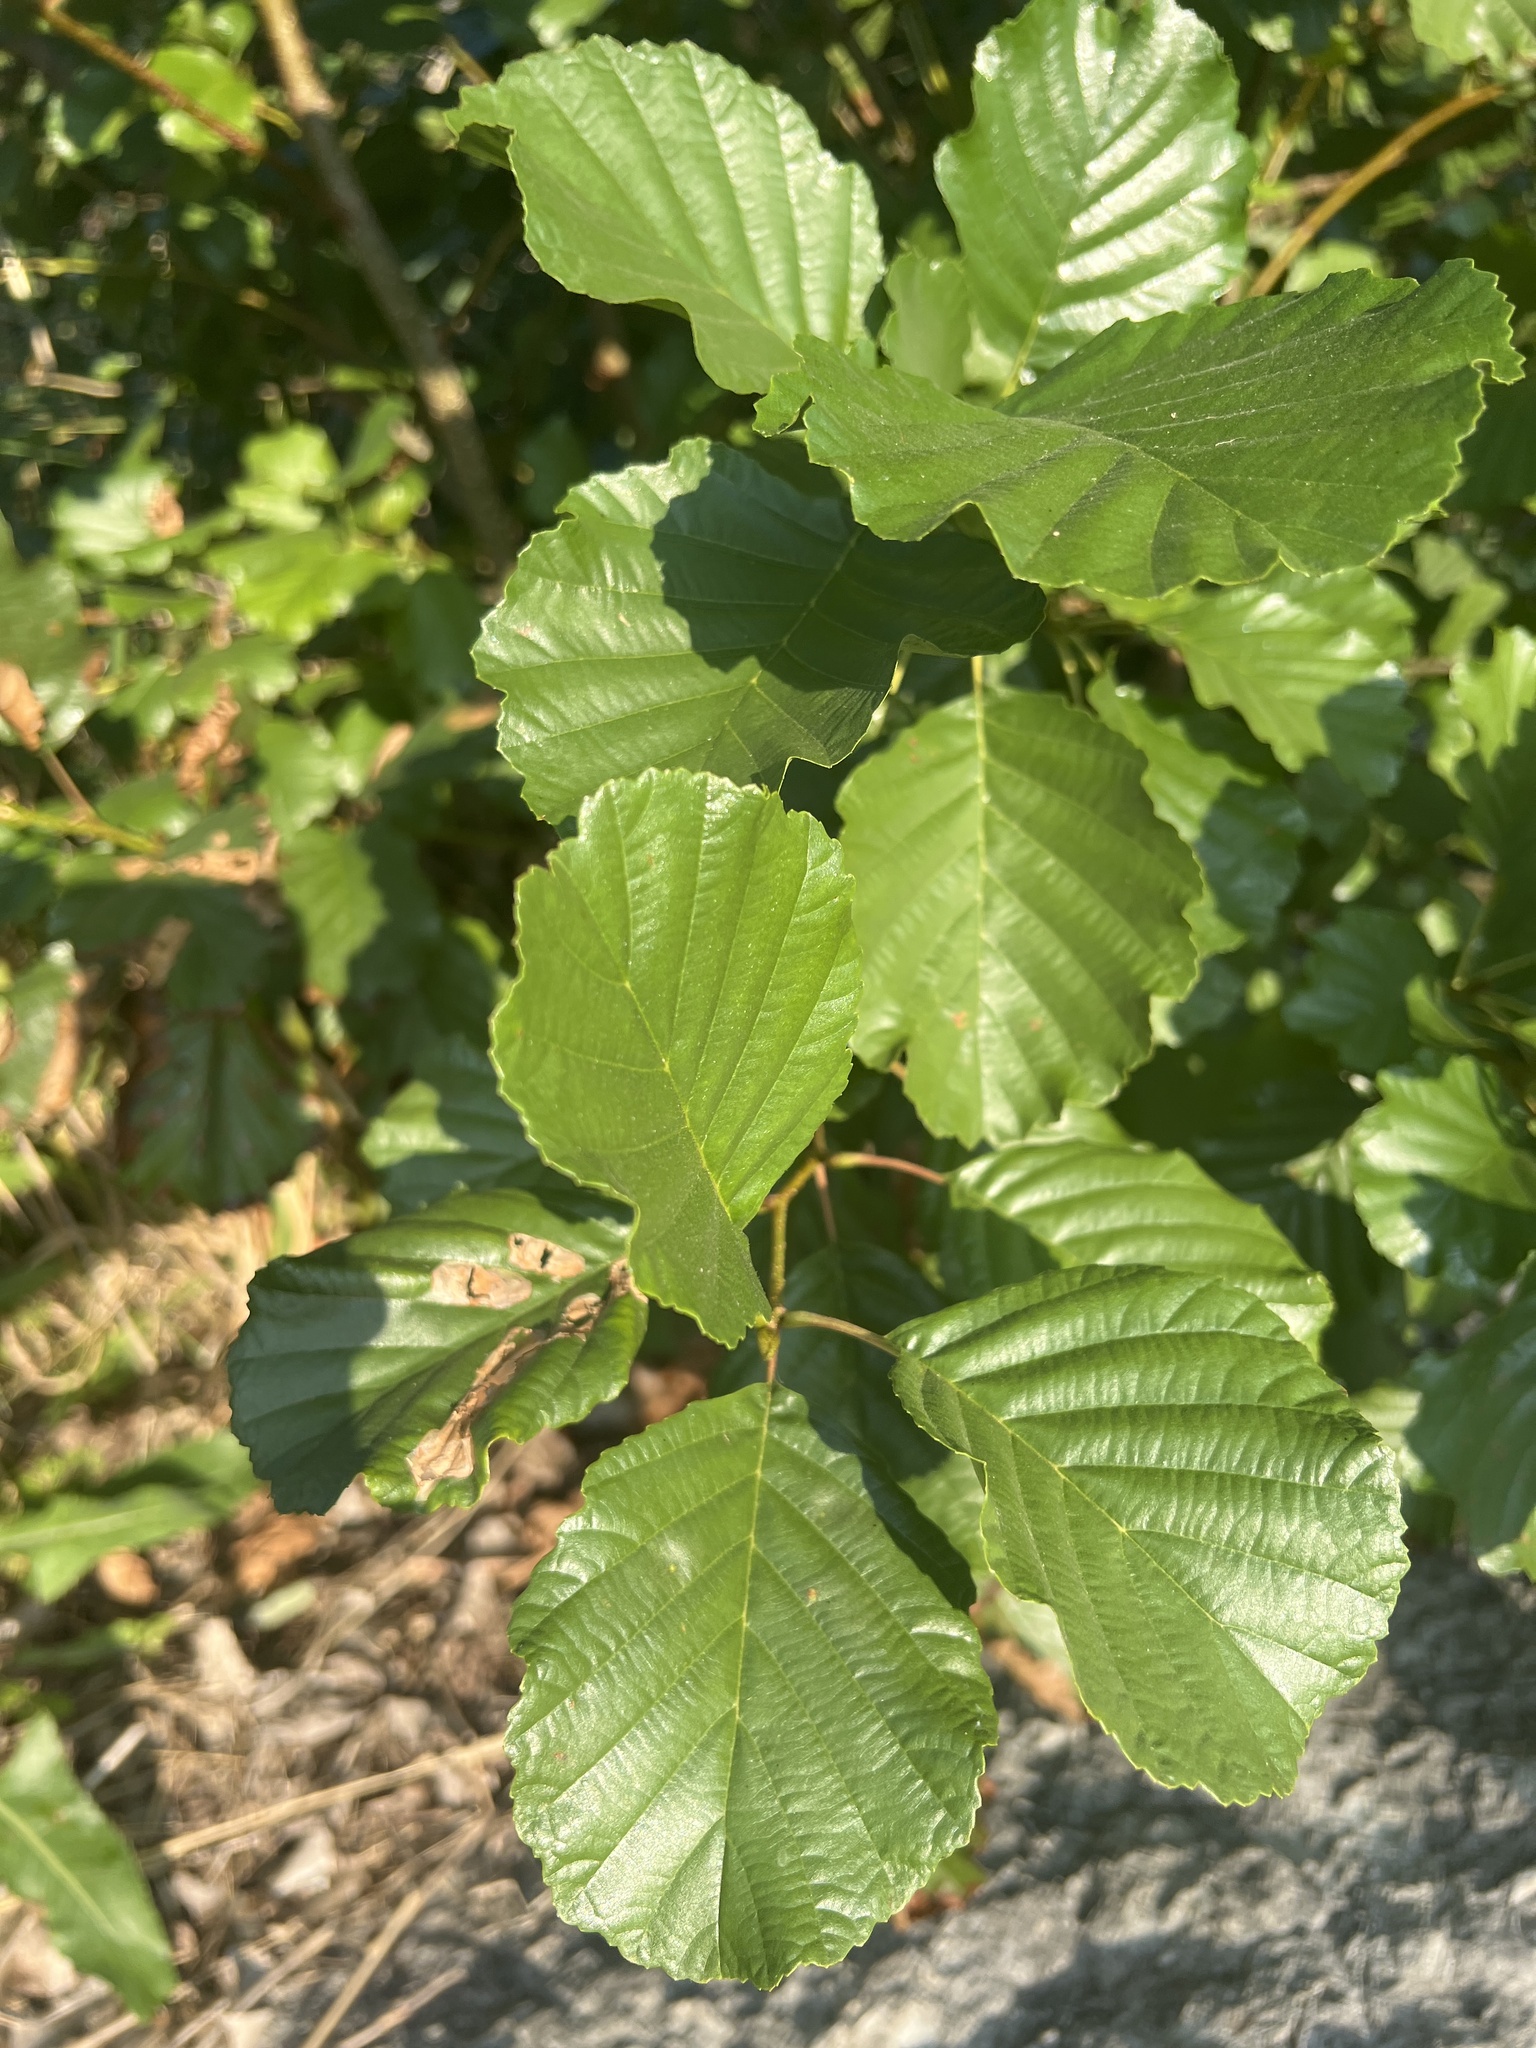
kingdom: Plantae
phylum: Tracheophyta
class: Magnoliopsida
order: Fagales
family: Betulaceae
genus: Alnus
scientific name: Alnus glutinosa
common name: Black alder
